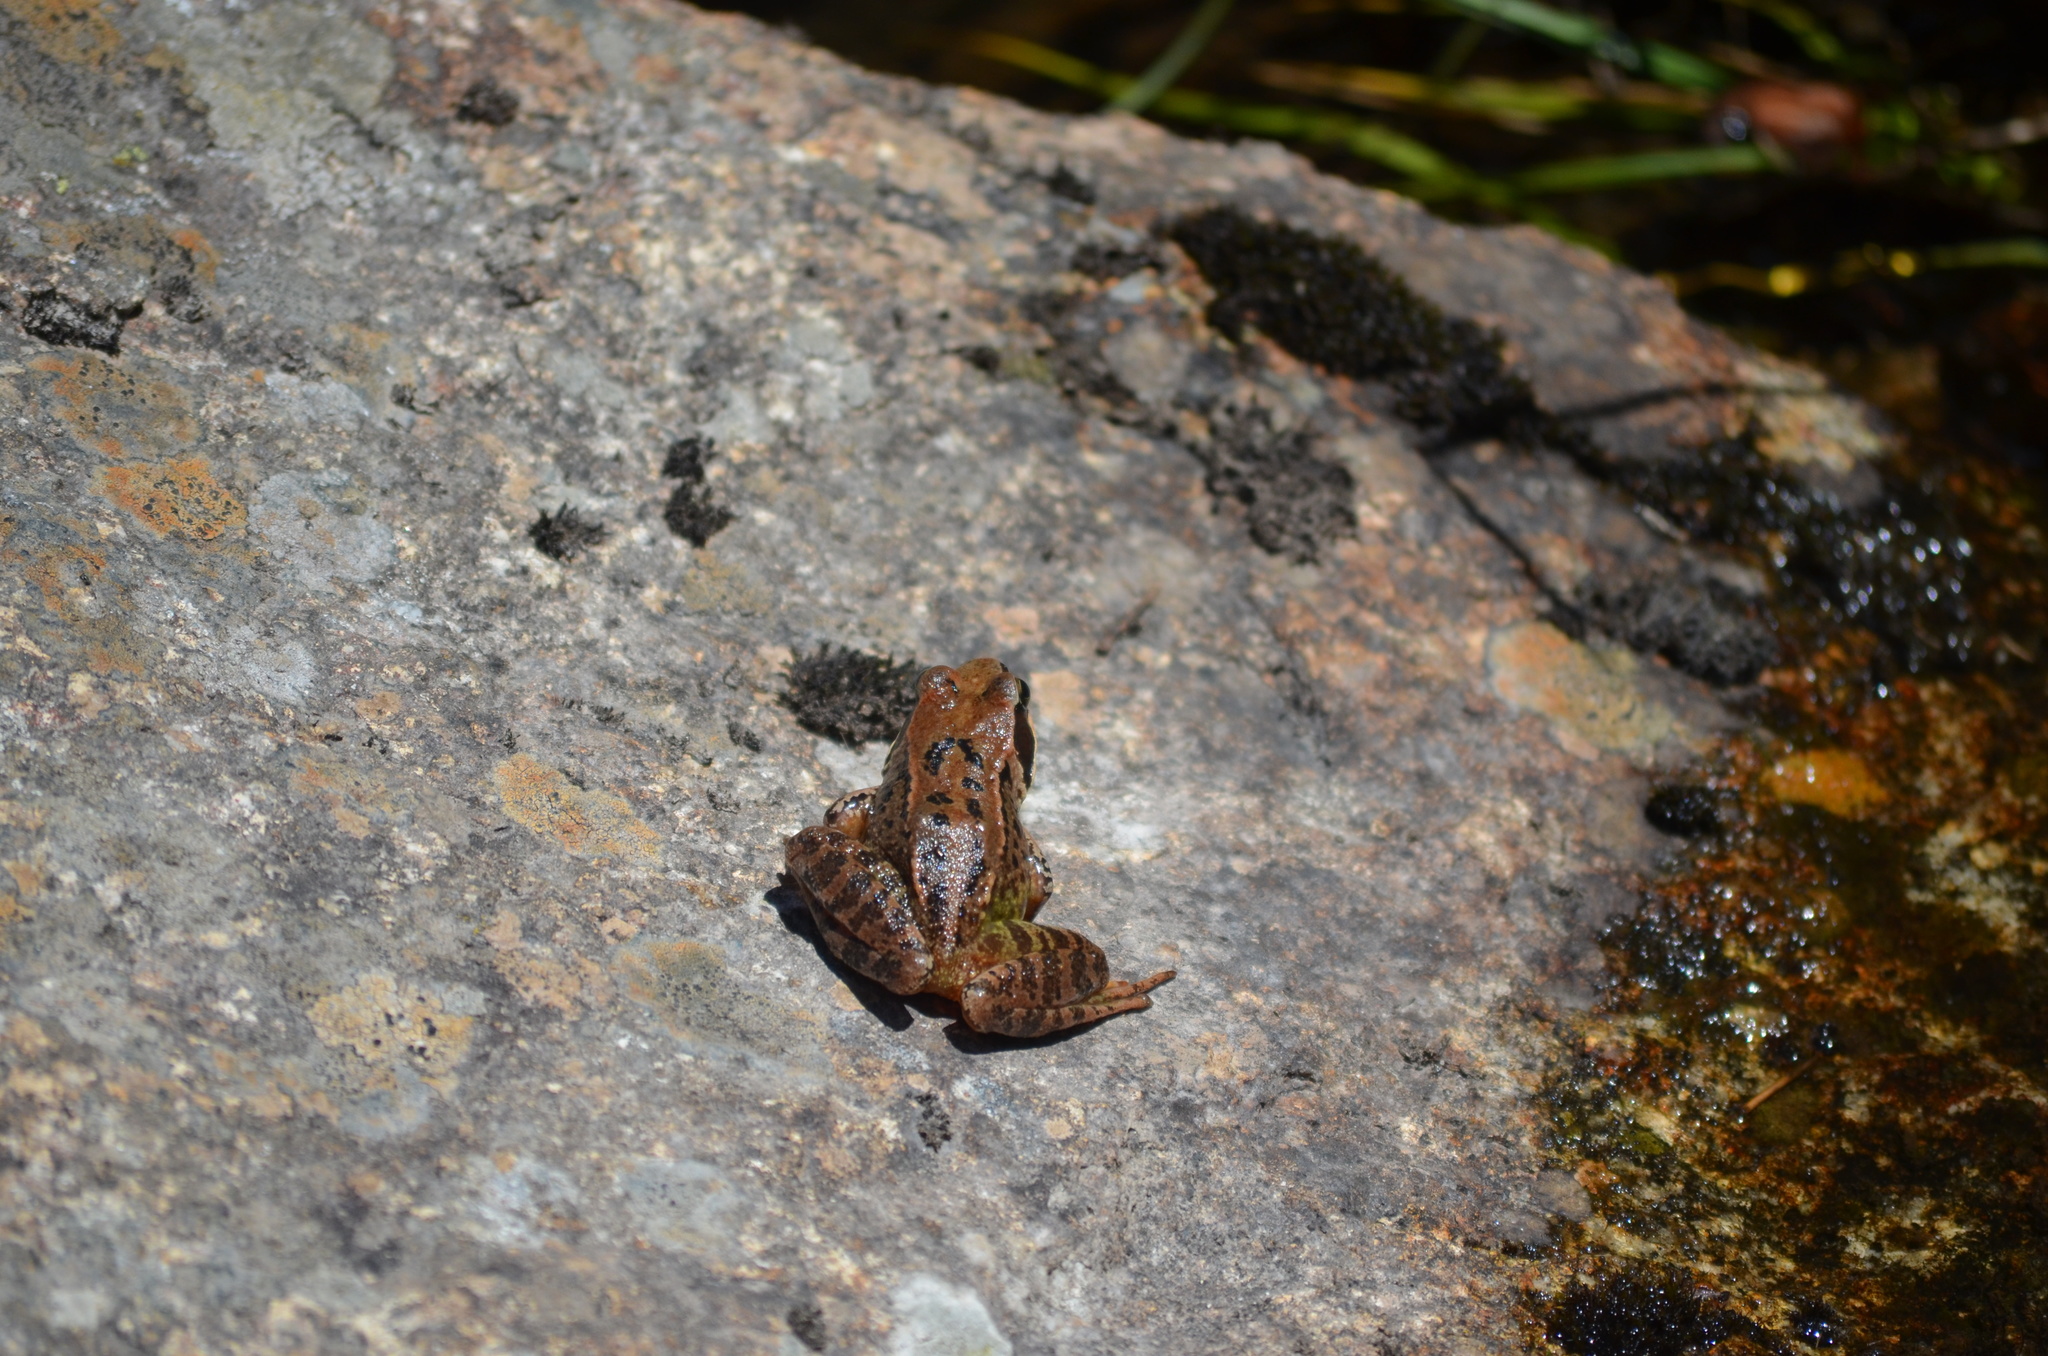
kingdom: Animalia
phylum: Chordata
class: Amphibia
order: Anura
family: Ranidae
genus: Rana
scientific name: Rana temporaria
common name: Common frog
